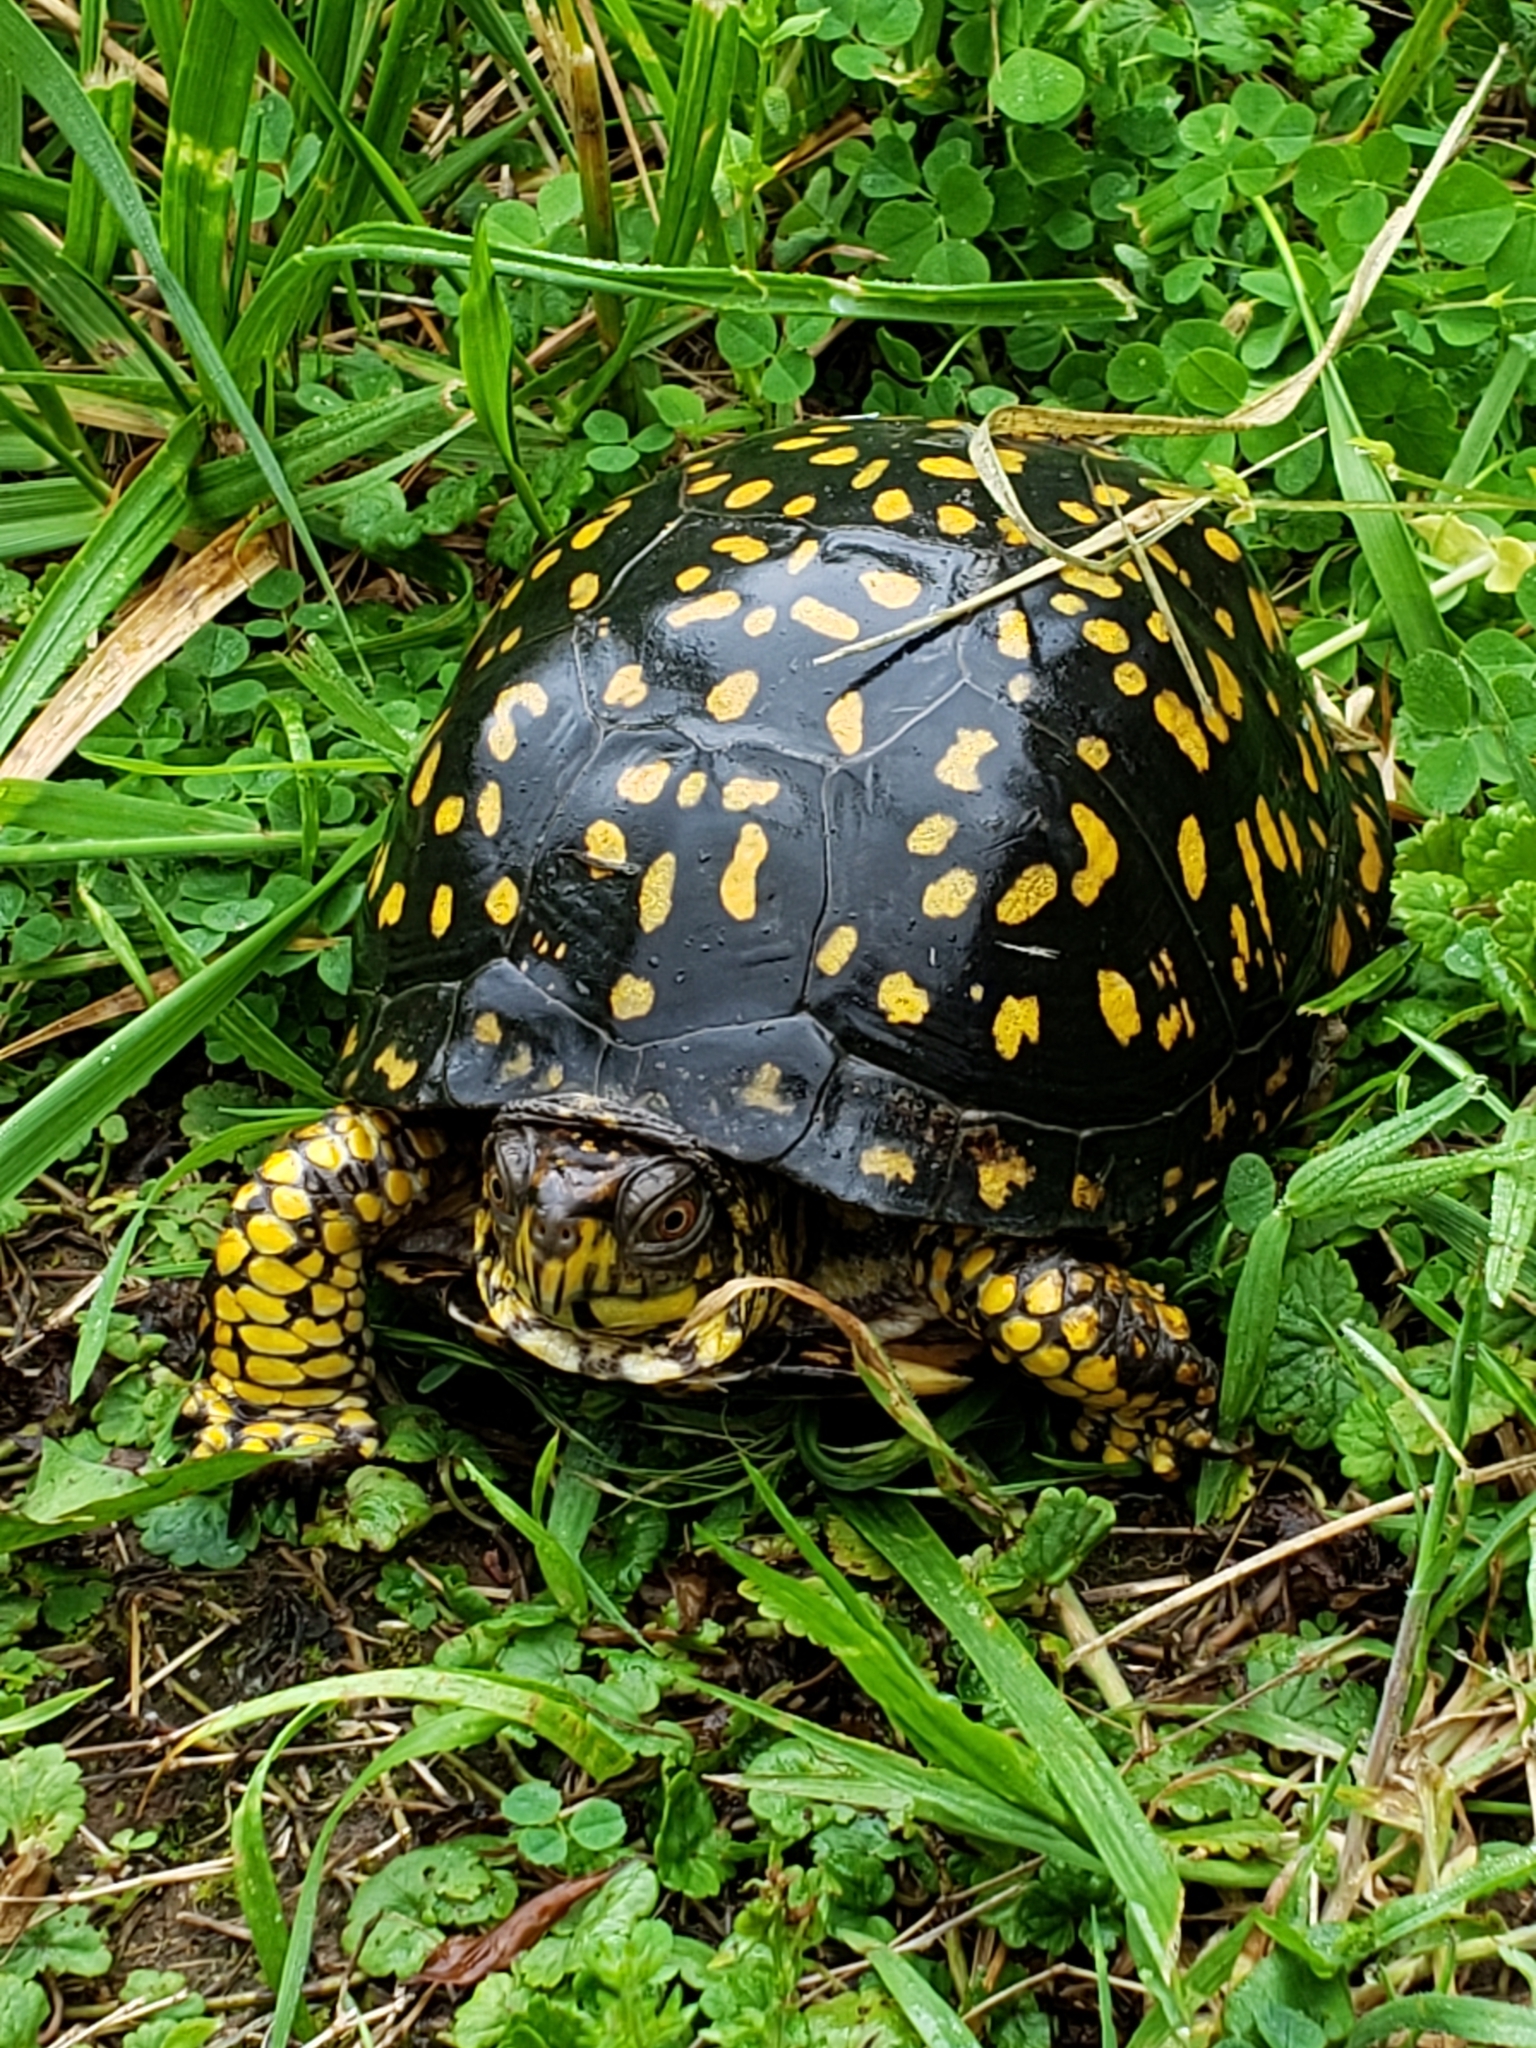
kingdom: Animalia
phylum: Chordata
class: Testudines
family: Emydidae
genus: Terrapene
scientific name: Terrapene carolina
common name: Common box turtle
